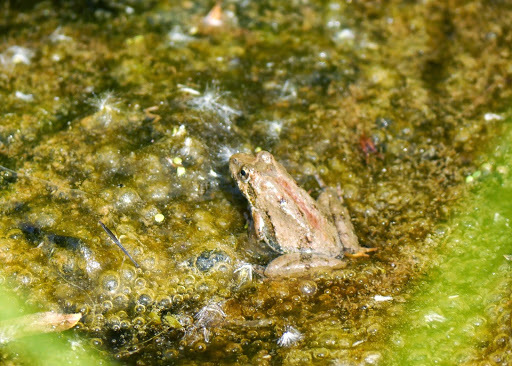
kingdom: Animalia
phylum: Chordata
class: Amphibia
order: Anura
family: Hylidae
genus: Acris
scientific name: Acris crepitans
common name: Northern cricket frog
